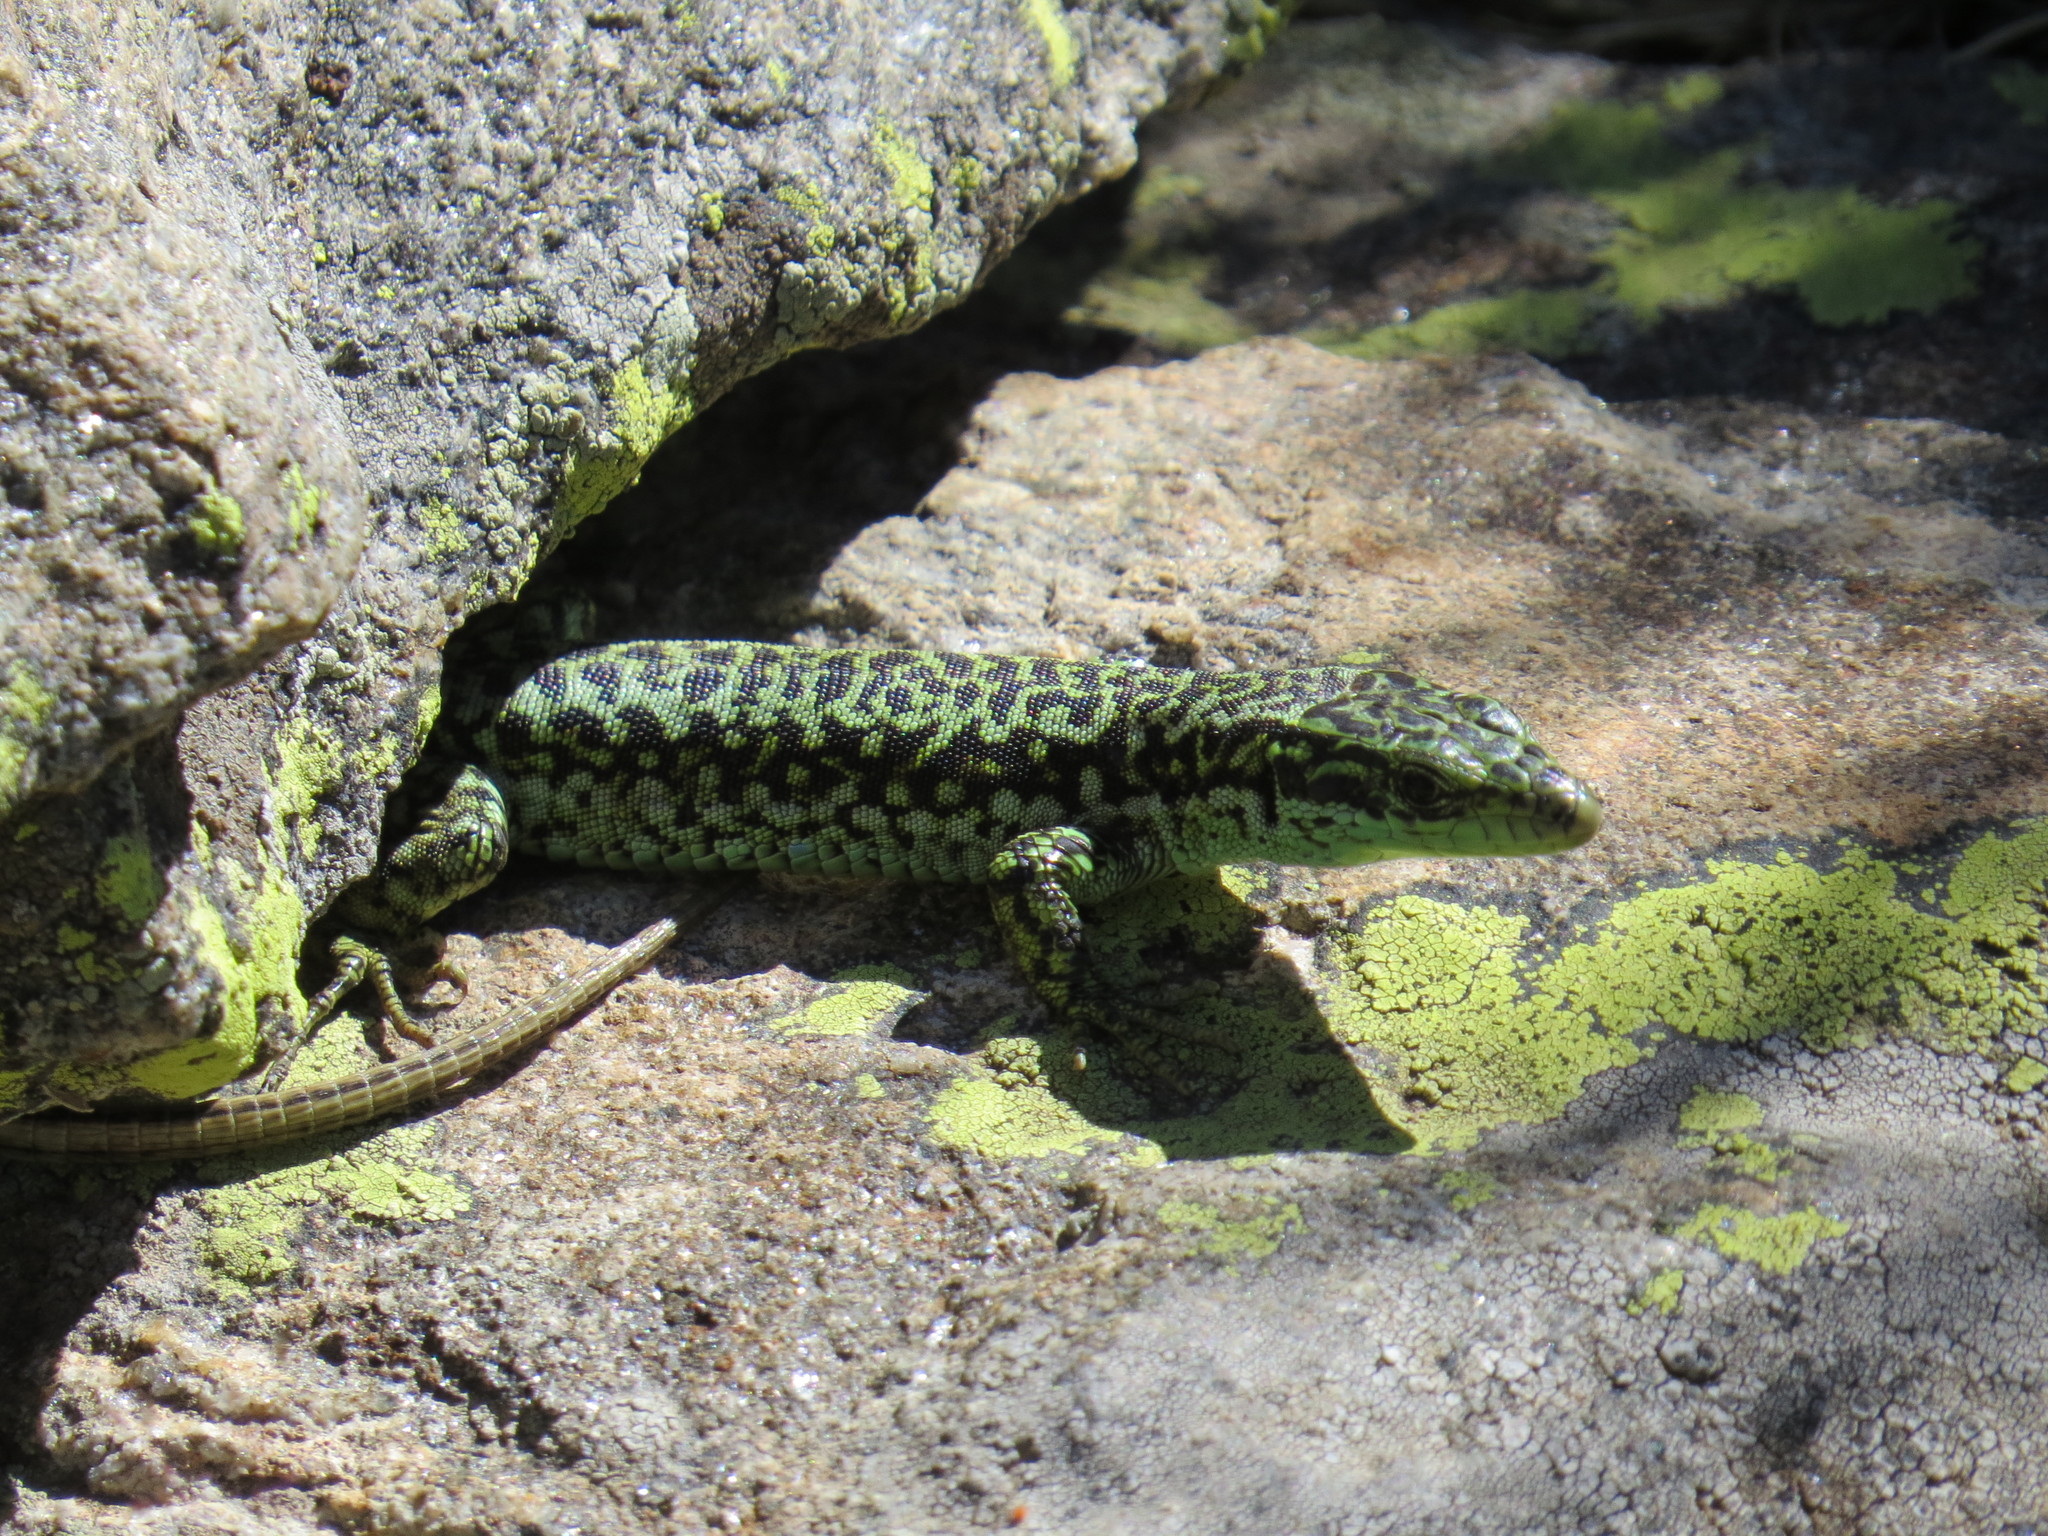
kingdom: Animalia
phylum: Chordata
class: Squamata
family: Lacertidae
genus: Iberolacerta
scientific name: Iberolacerta cyreni
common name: Cyren’s rock lizard
